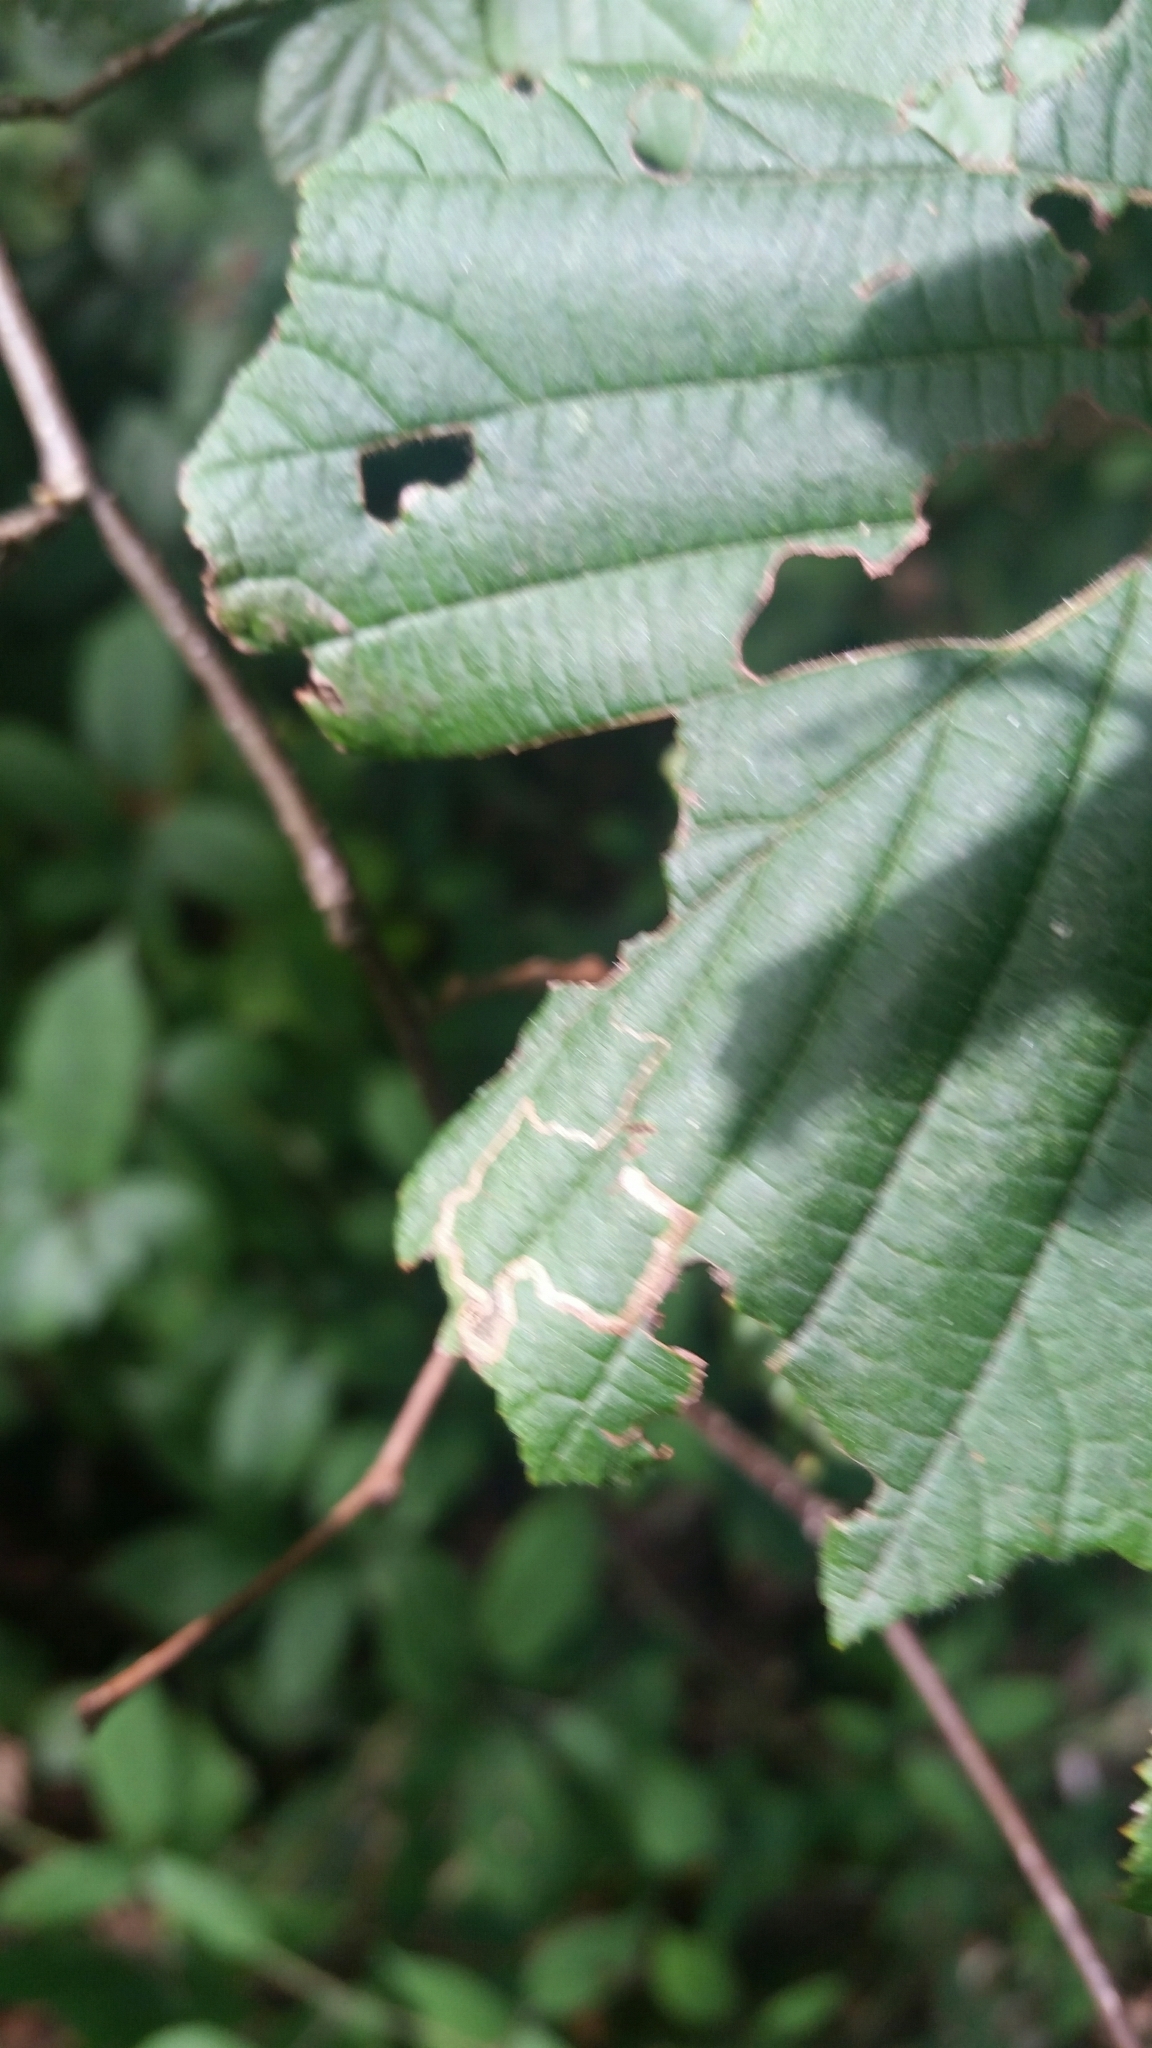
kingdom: Animalia
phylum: Arthropoda
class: Insecta
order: Lepidoptera
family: Nepticulidae
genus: Stigmella
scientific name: Stigmella microtheriella
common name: Nut-tree pigmy
